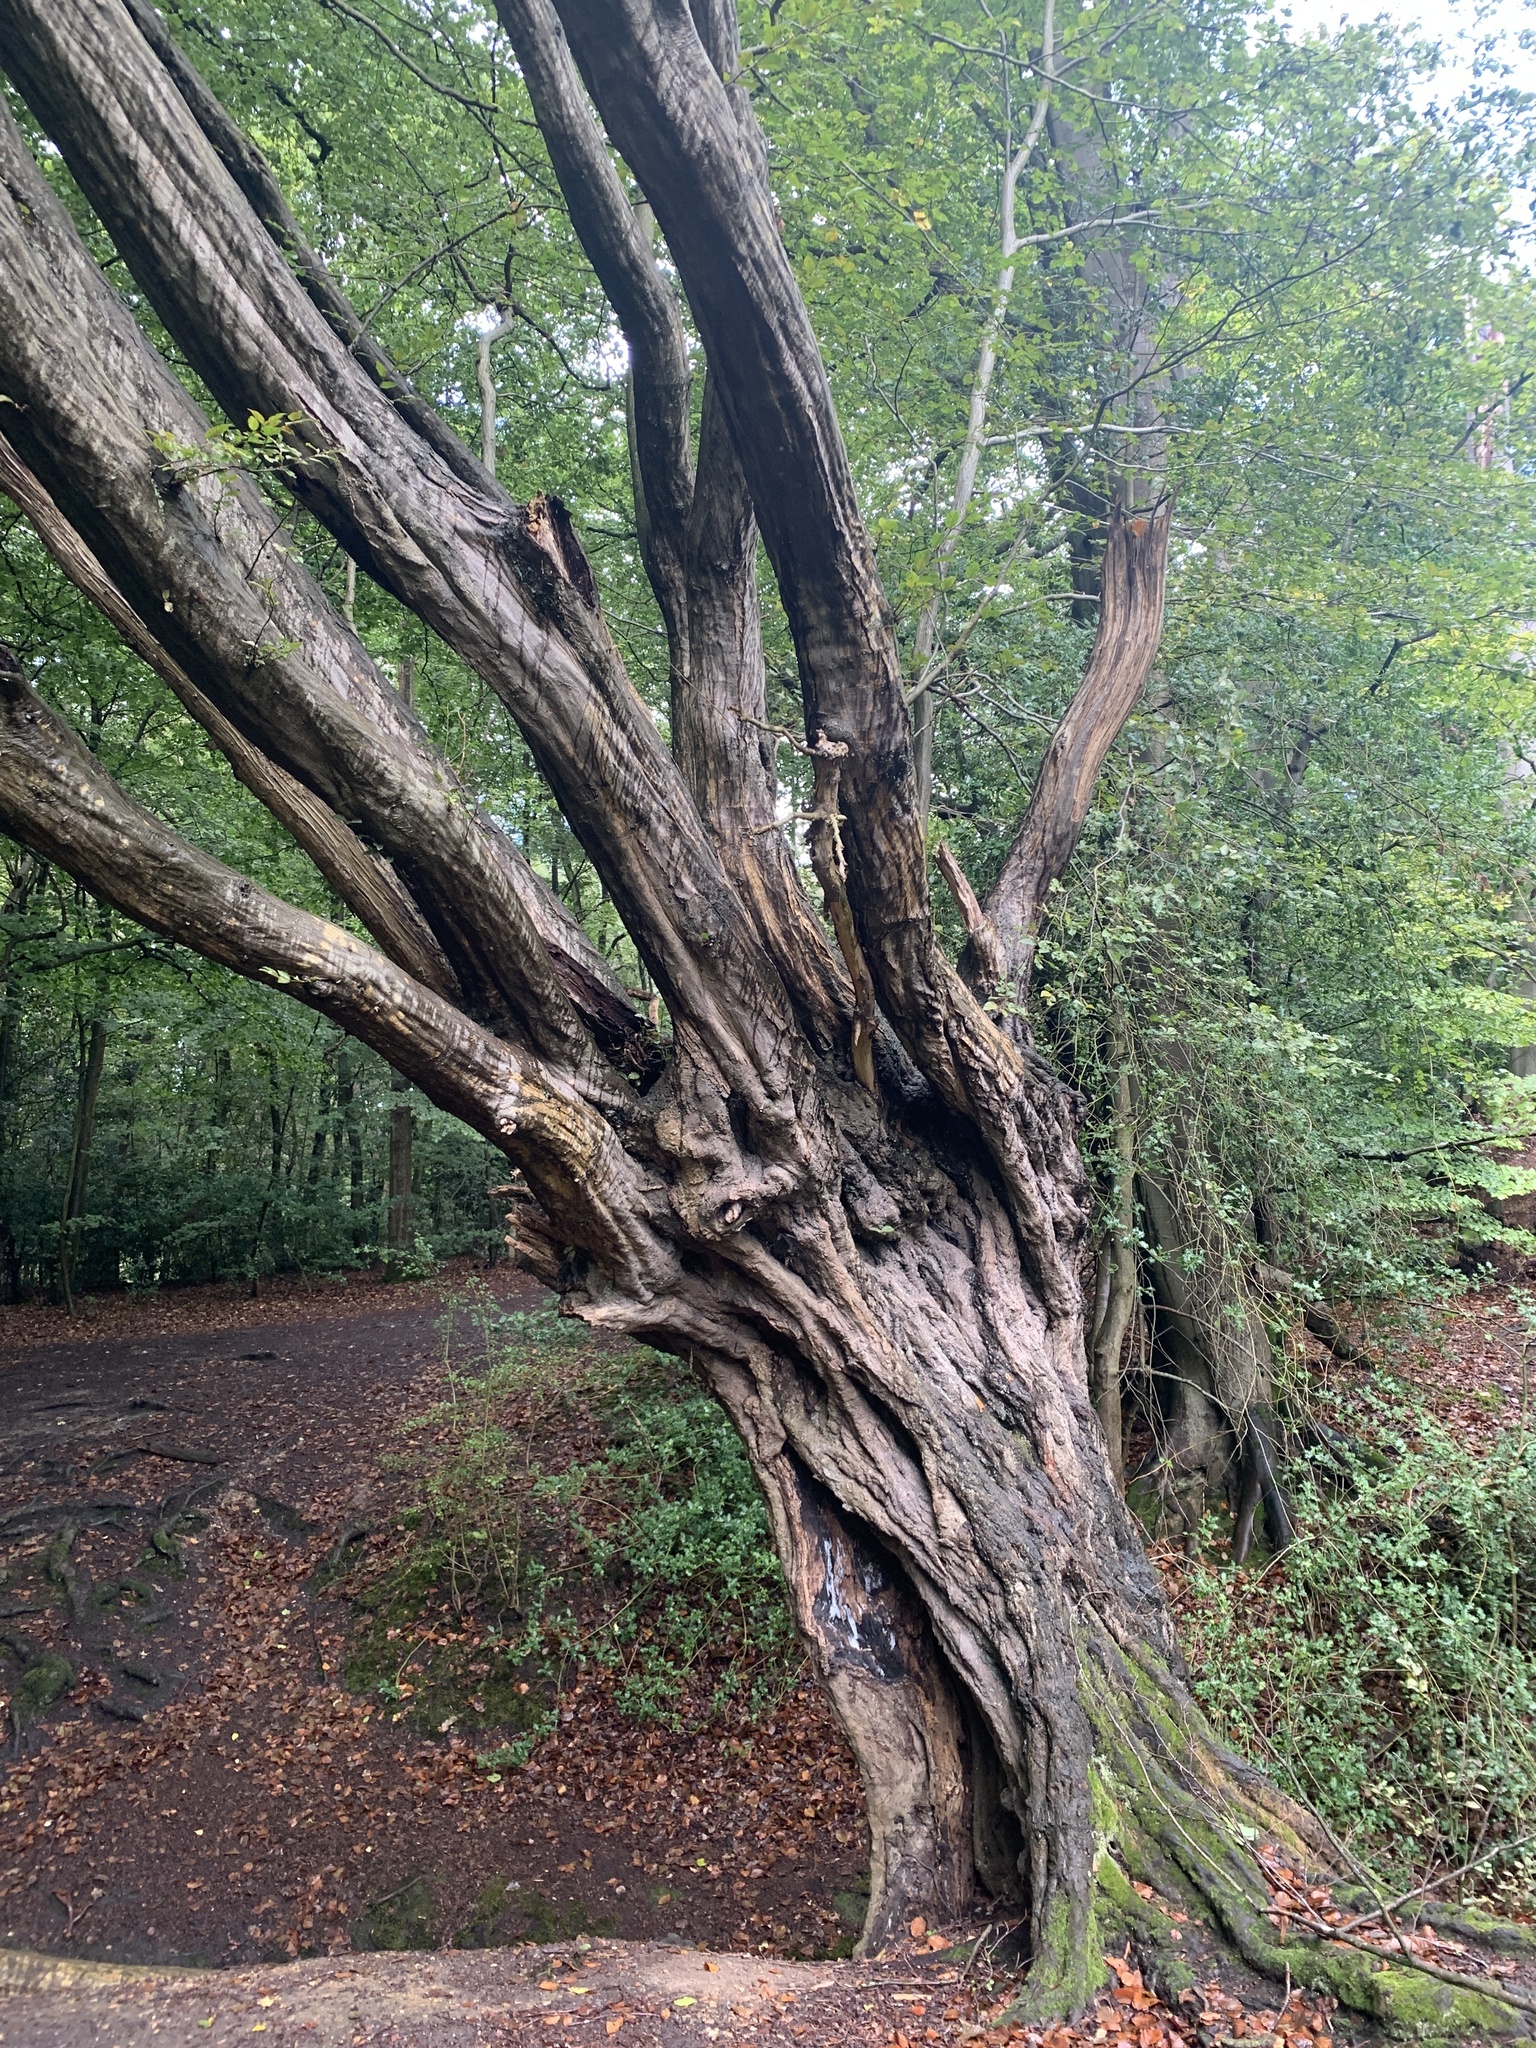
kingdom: Plantae
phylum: Tracheophyta
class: Magnoliopsida
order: Fagales
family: Betulaceae
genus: Carpinus
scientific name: Carpinus betulus
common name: Hornbeam
